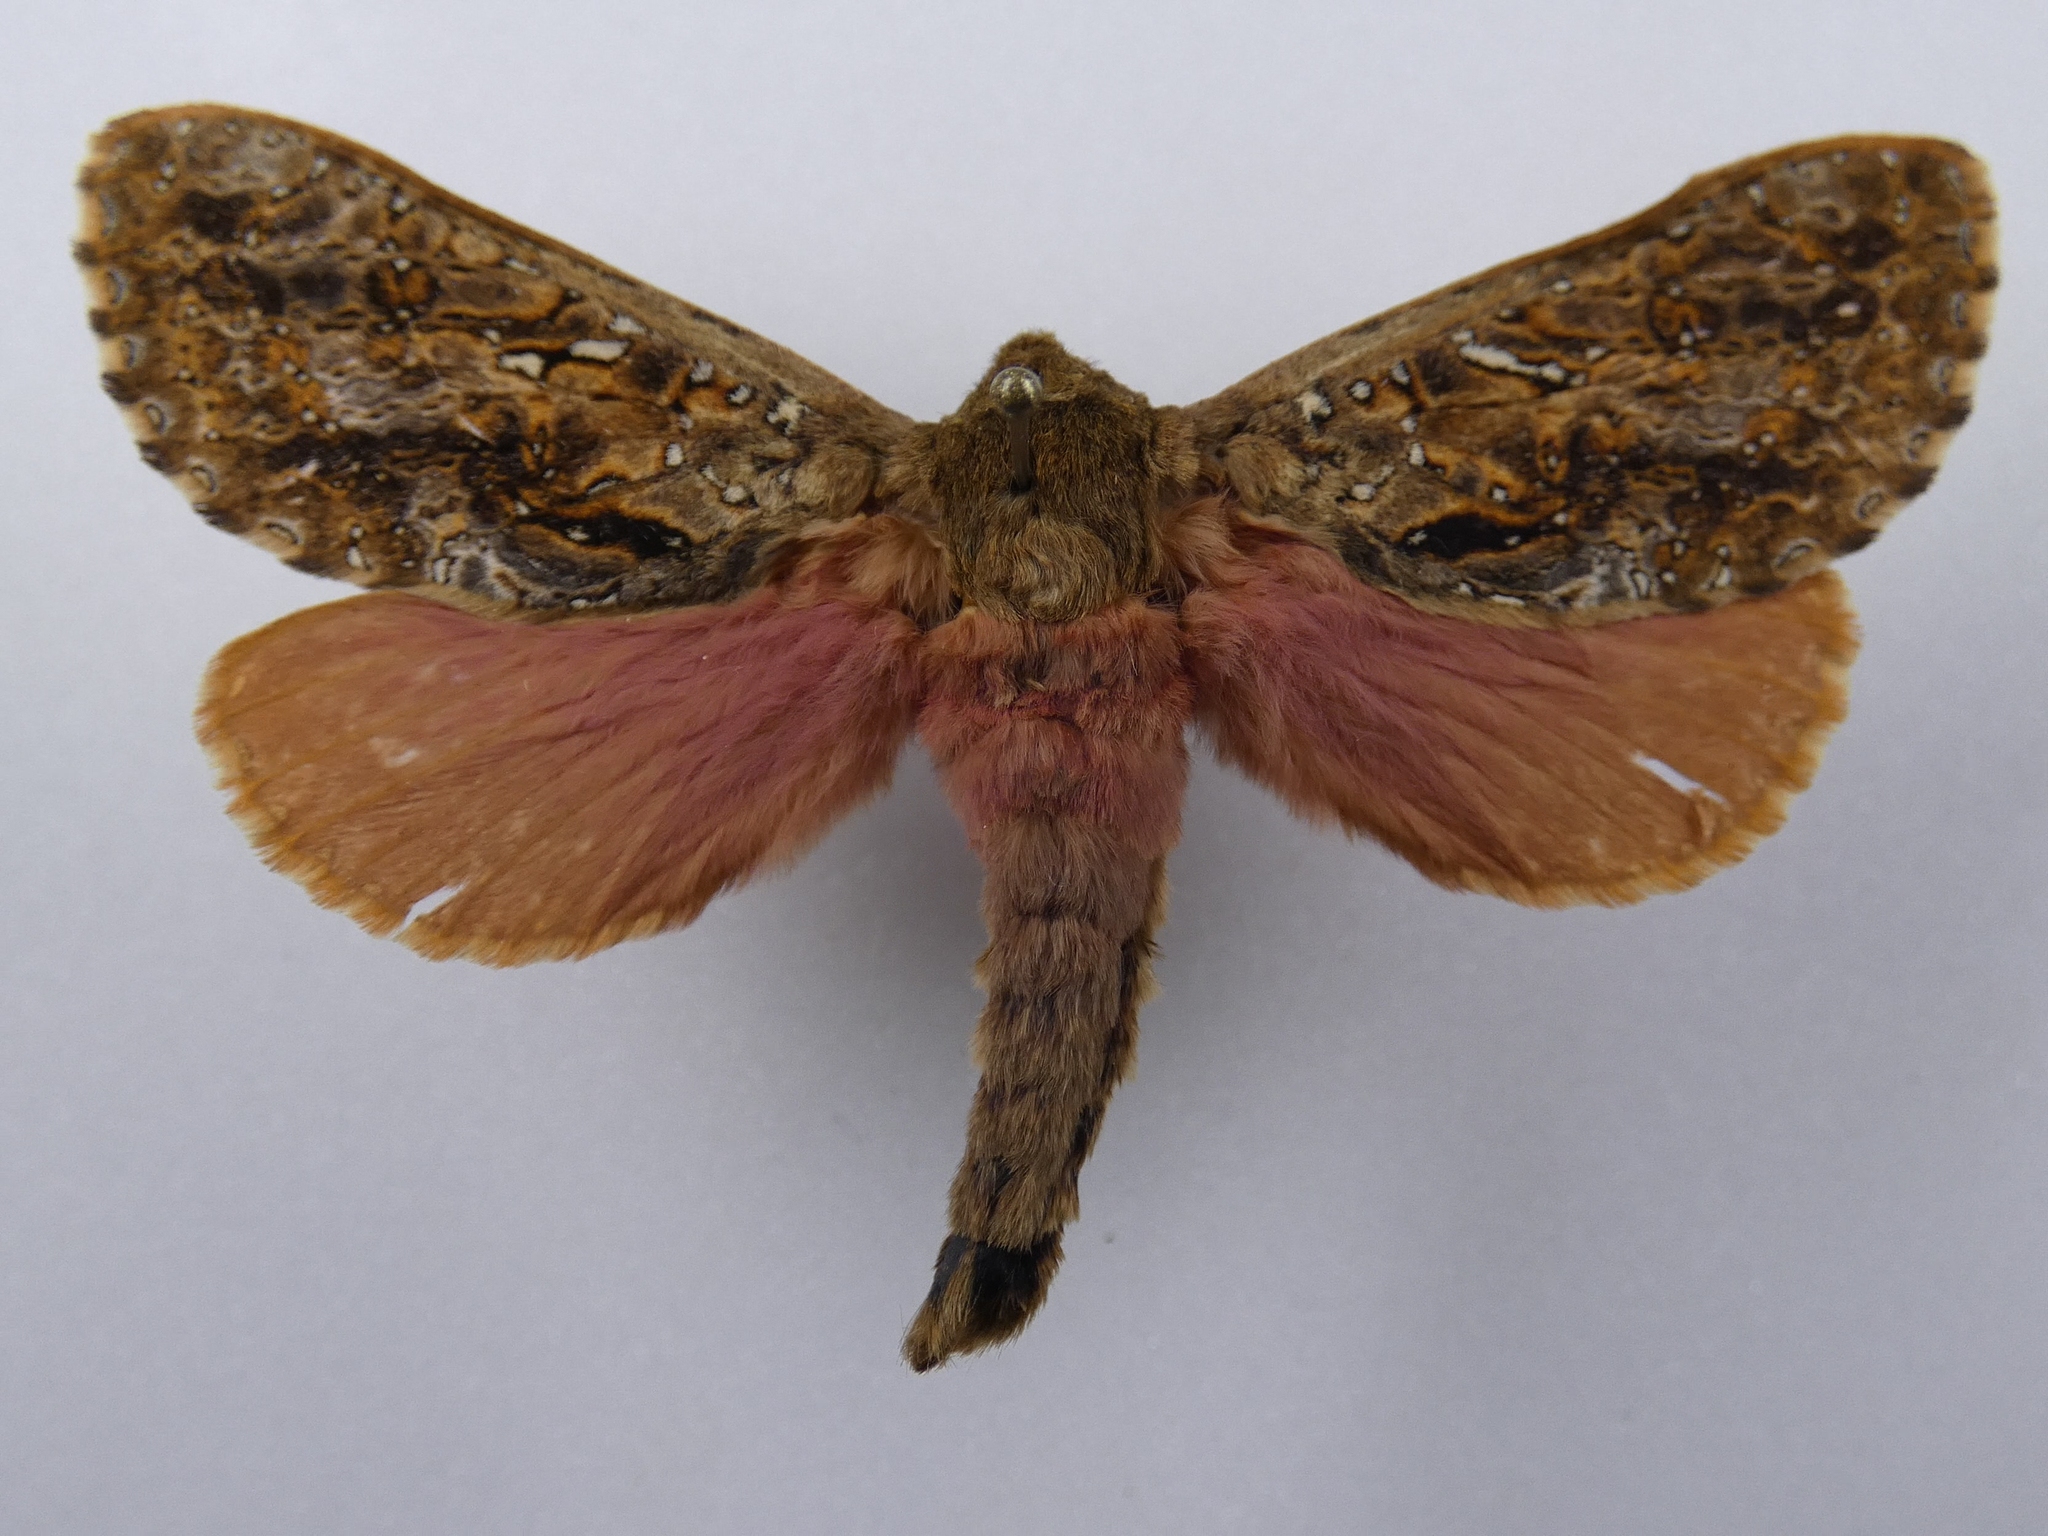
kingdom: Animalia
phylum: Arthropoda
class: Insecta
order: Lepidoptera
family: Hepialidae
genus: Dumbletonius
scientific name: Dumbletonius unimaculata
